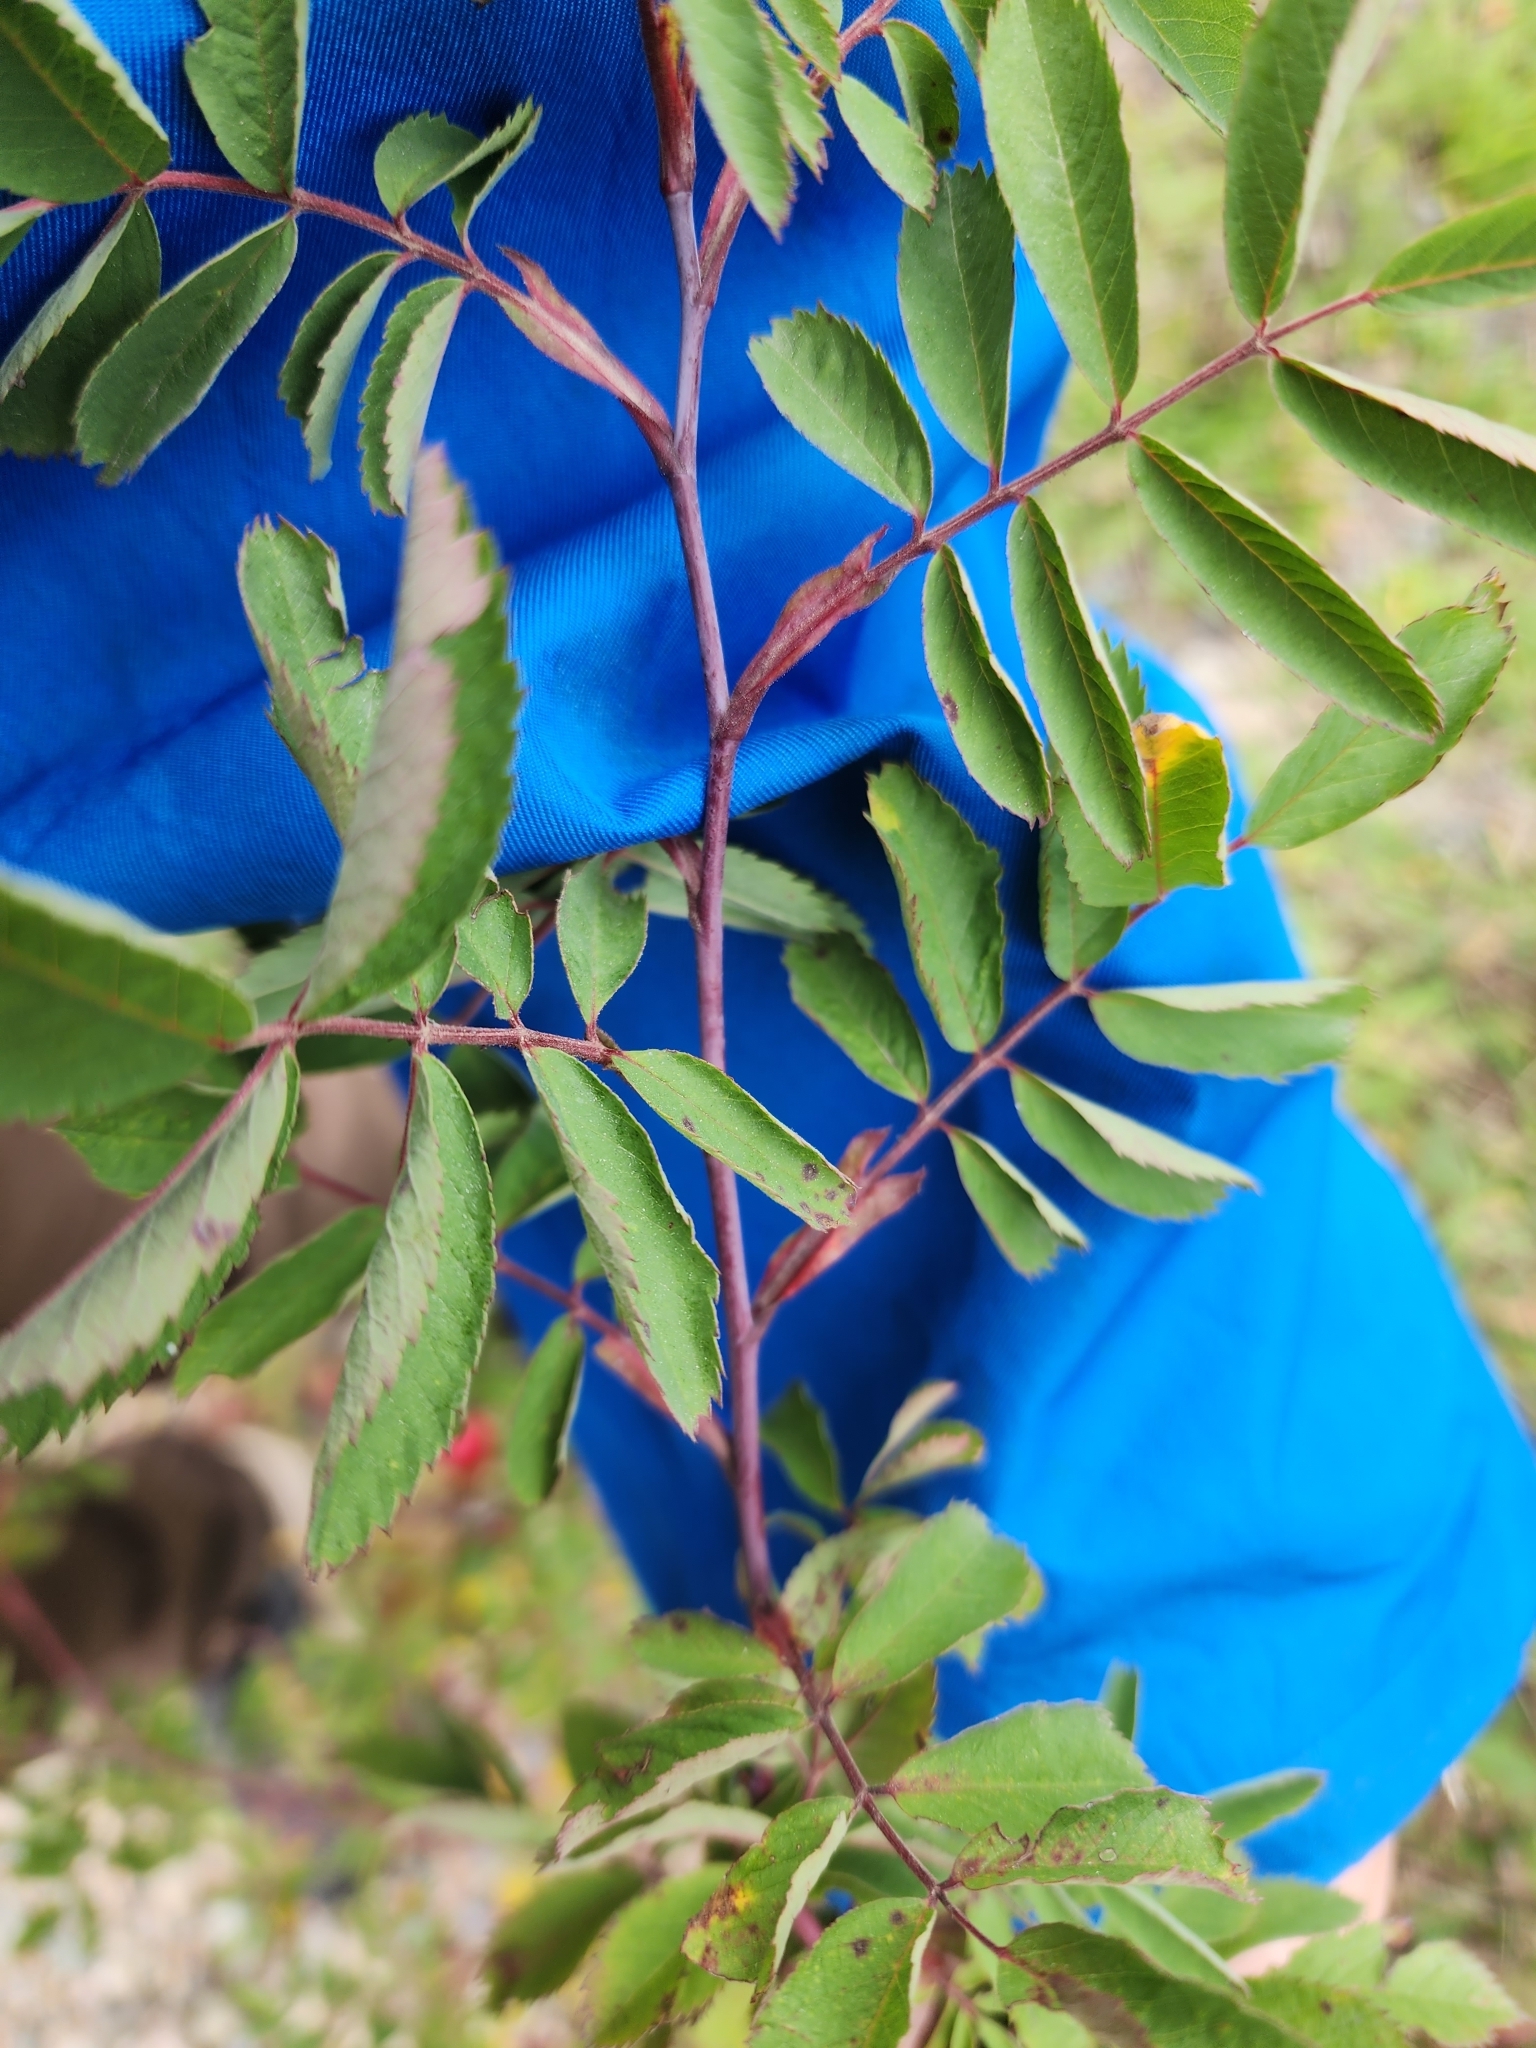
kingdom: Plantae
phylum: Tracheophyta
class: Magnoliopsida
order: Rosales
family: Rosaceae
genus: Rosa
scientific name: Rosa blanda
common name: Smooth rose
